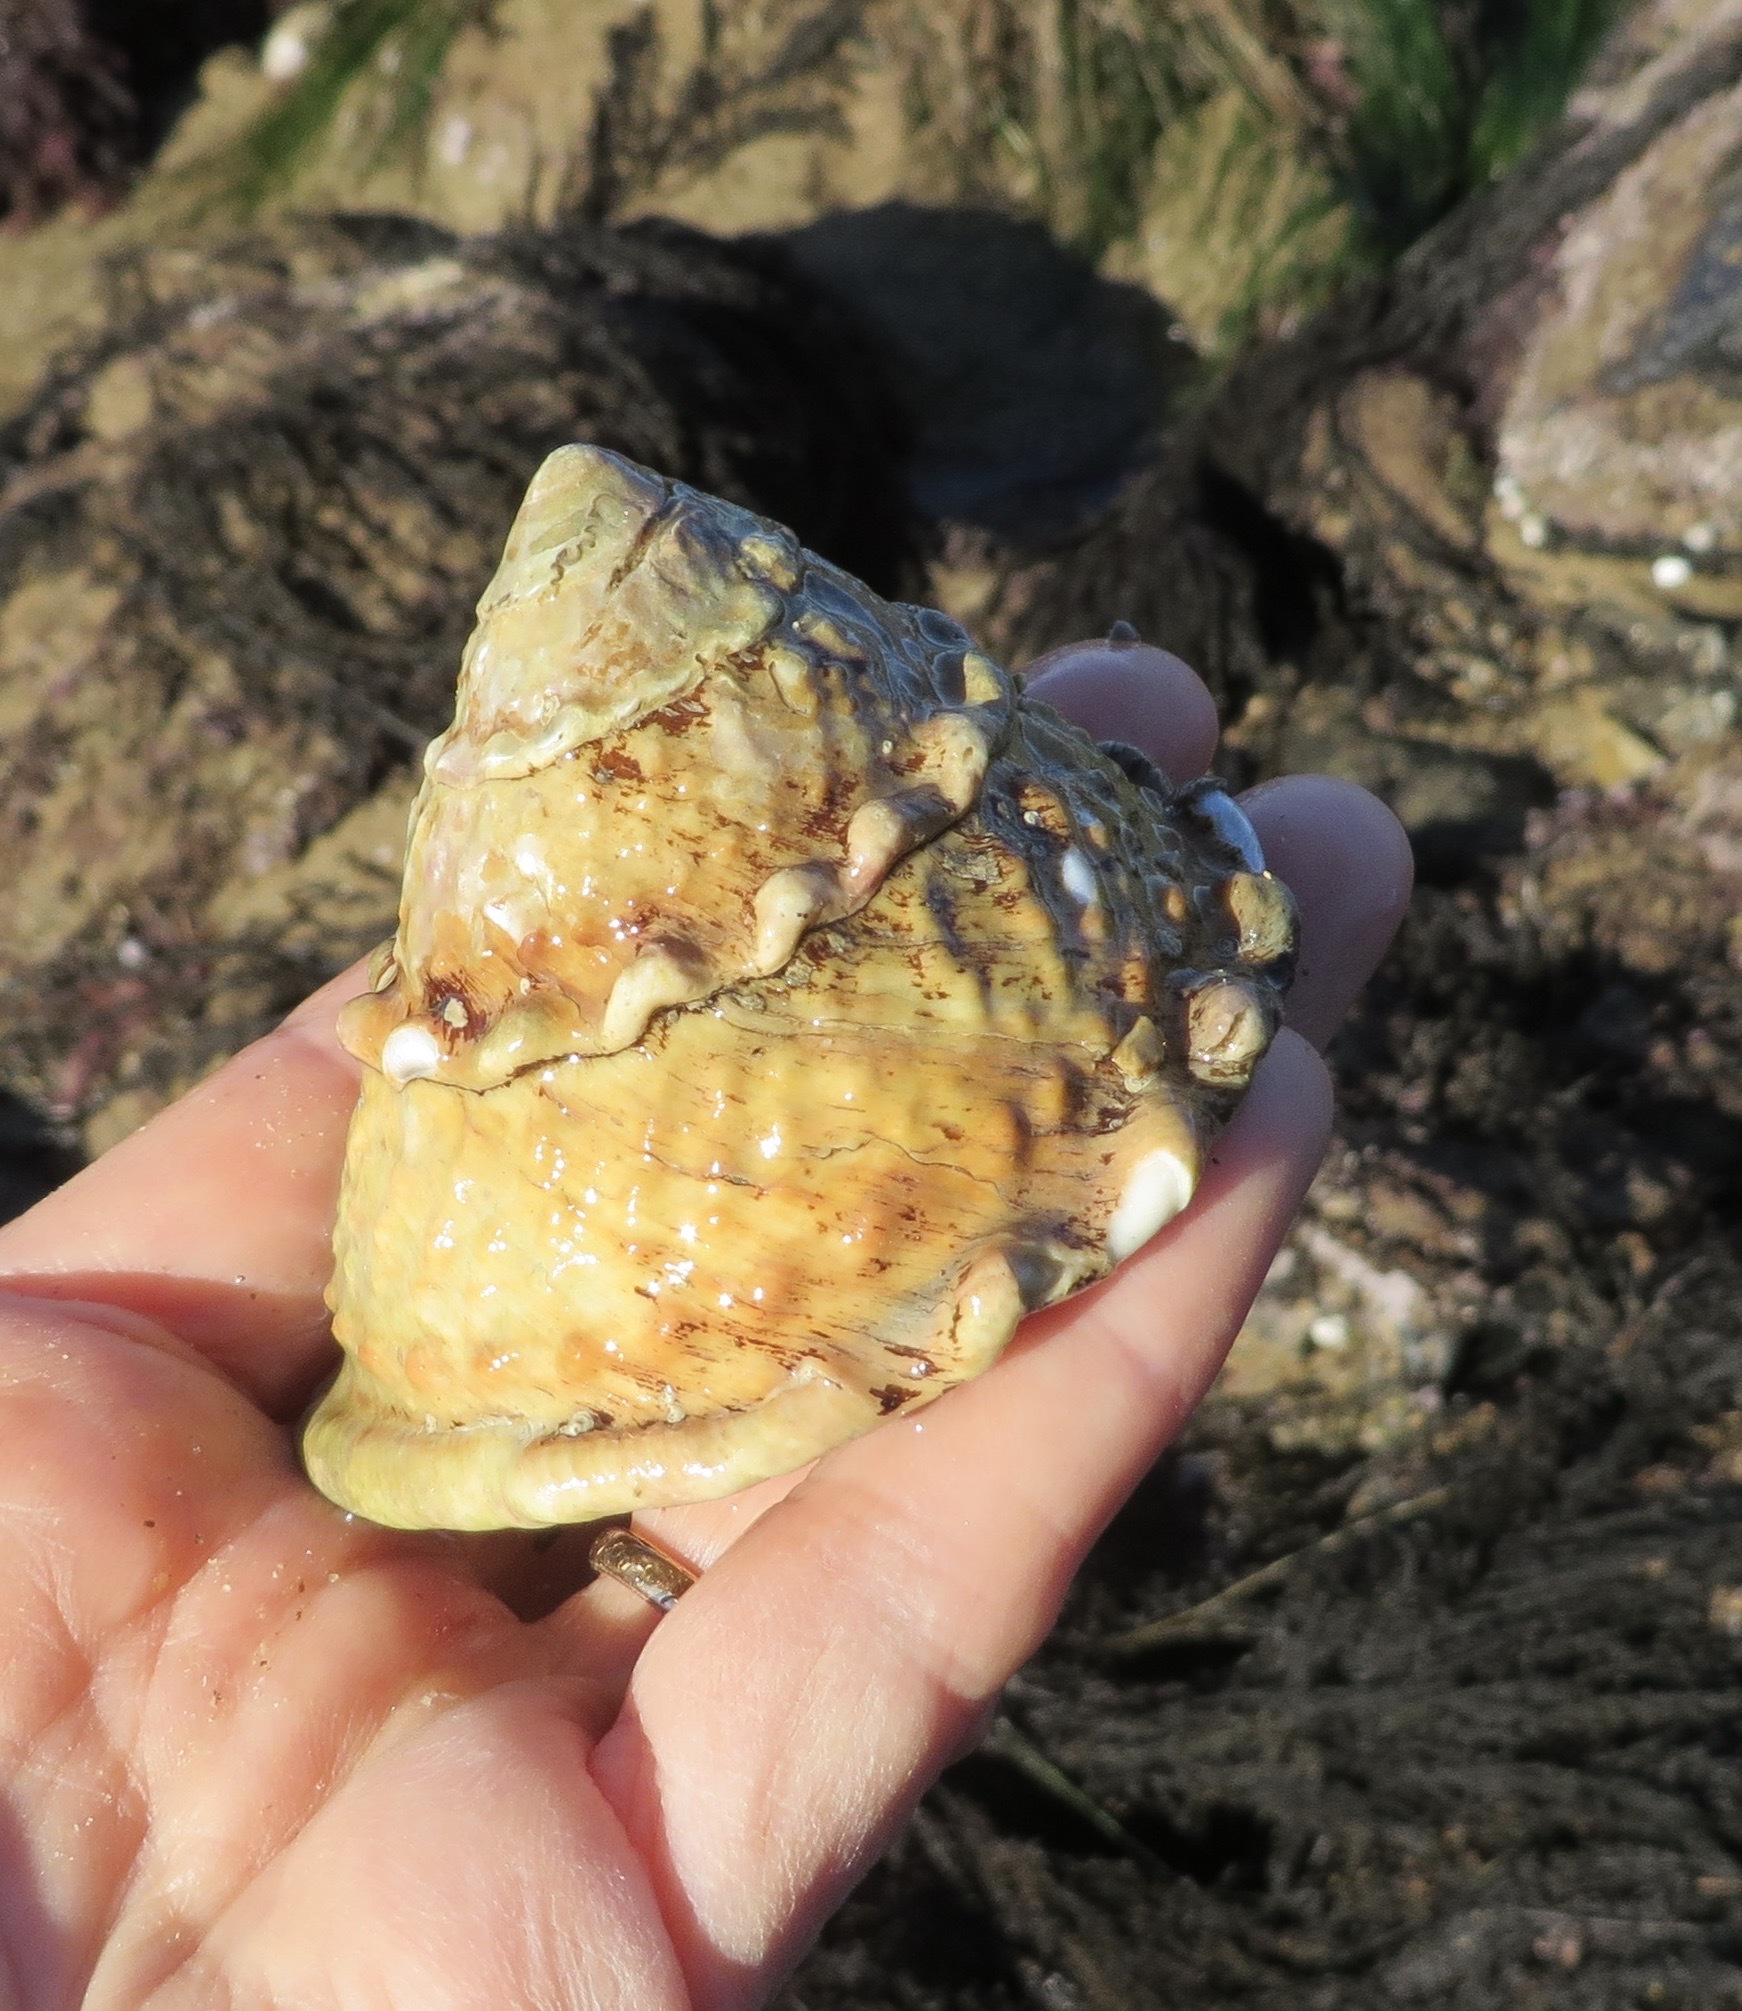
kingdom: Animalia
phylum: Mollusca
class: Gastropoda
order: Trochida
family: Turbinidae
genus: Megastraea
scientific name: Megastraea undosa
